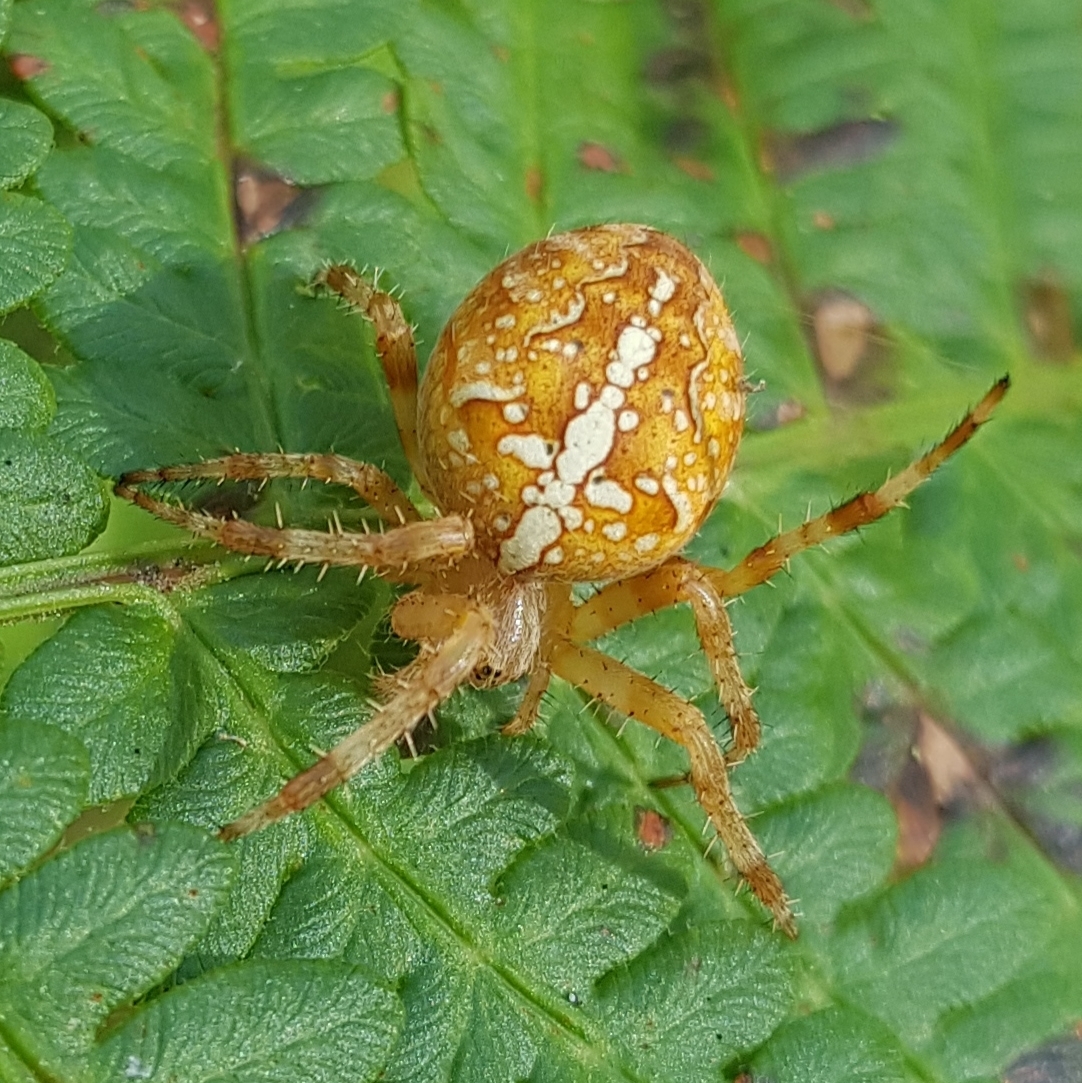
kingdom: Animalia
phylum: Arthropoda
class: Arachnida
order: Araneae
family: Araneidae
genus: Araneus
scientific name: Araneus diadematus
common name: Cross orbweaver
